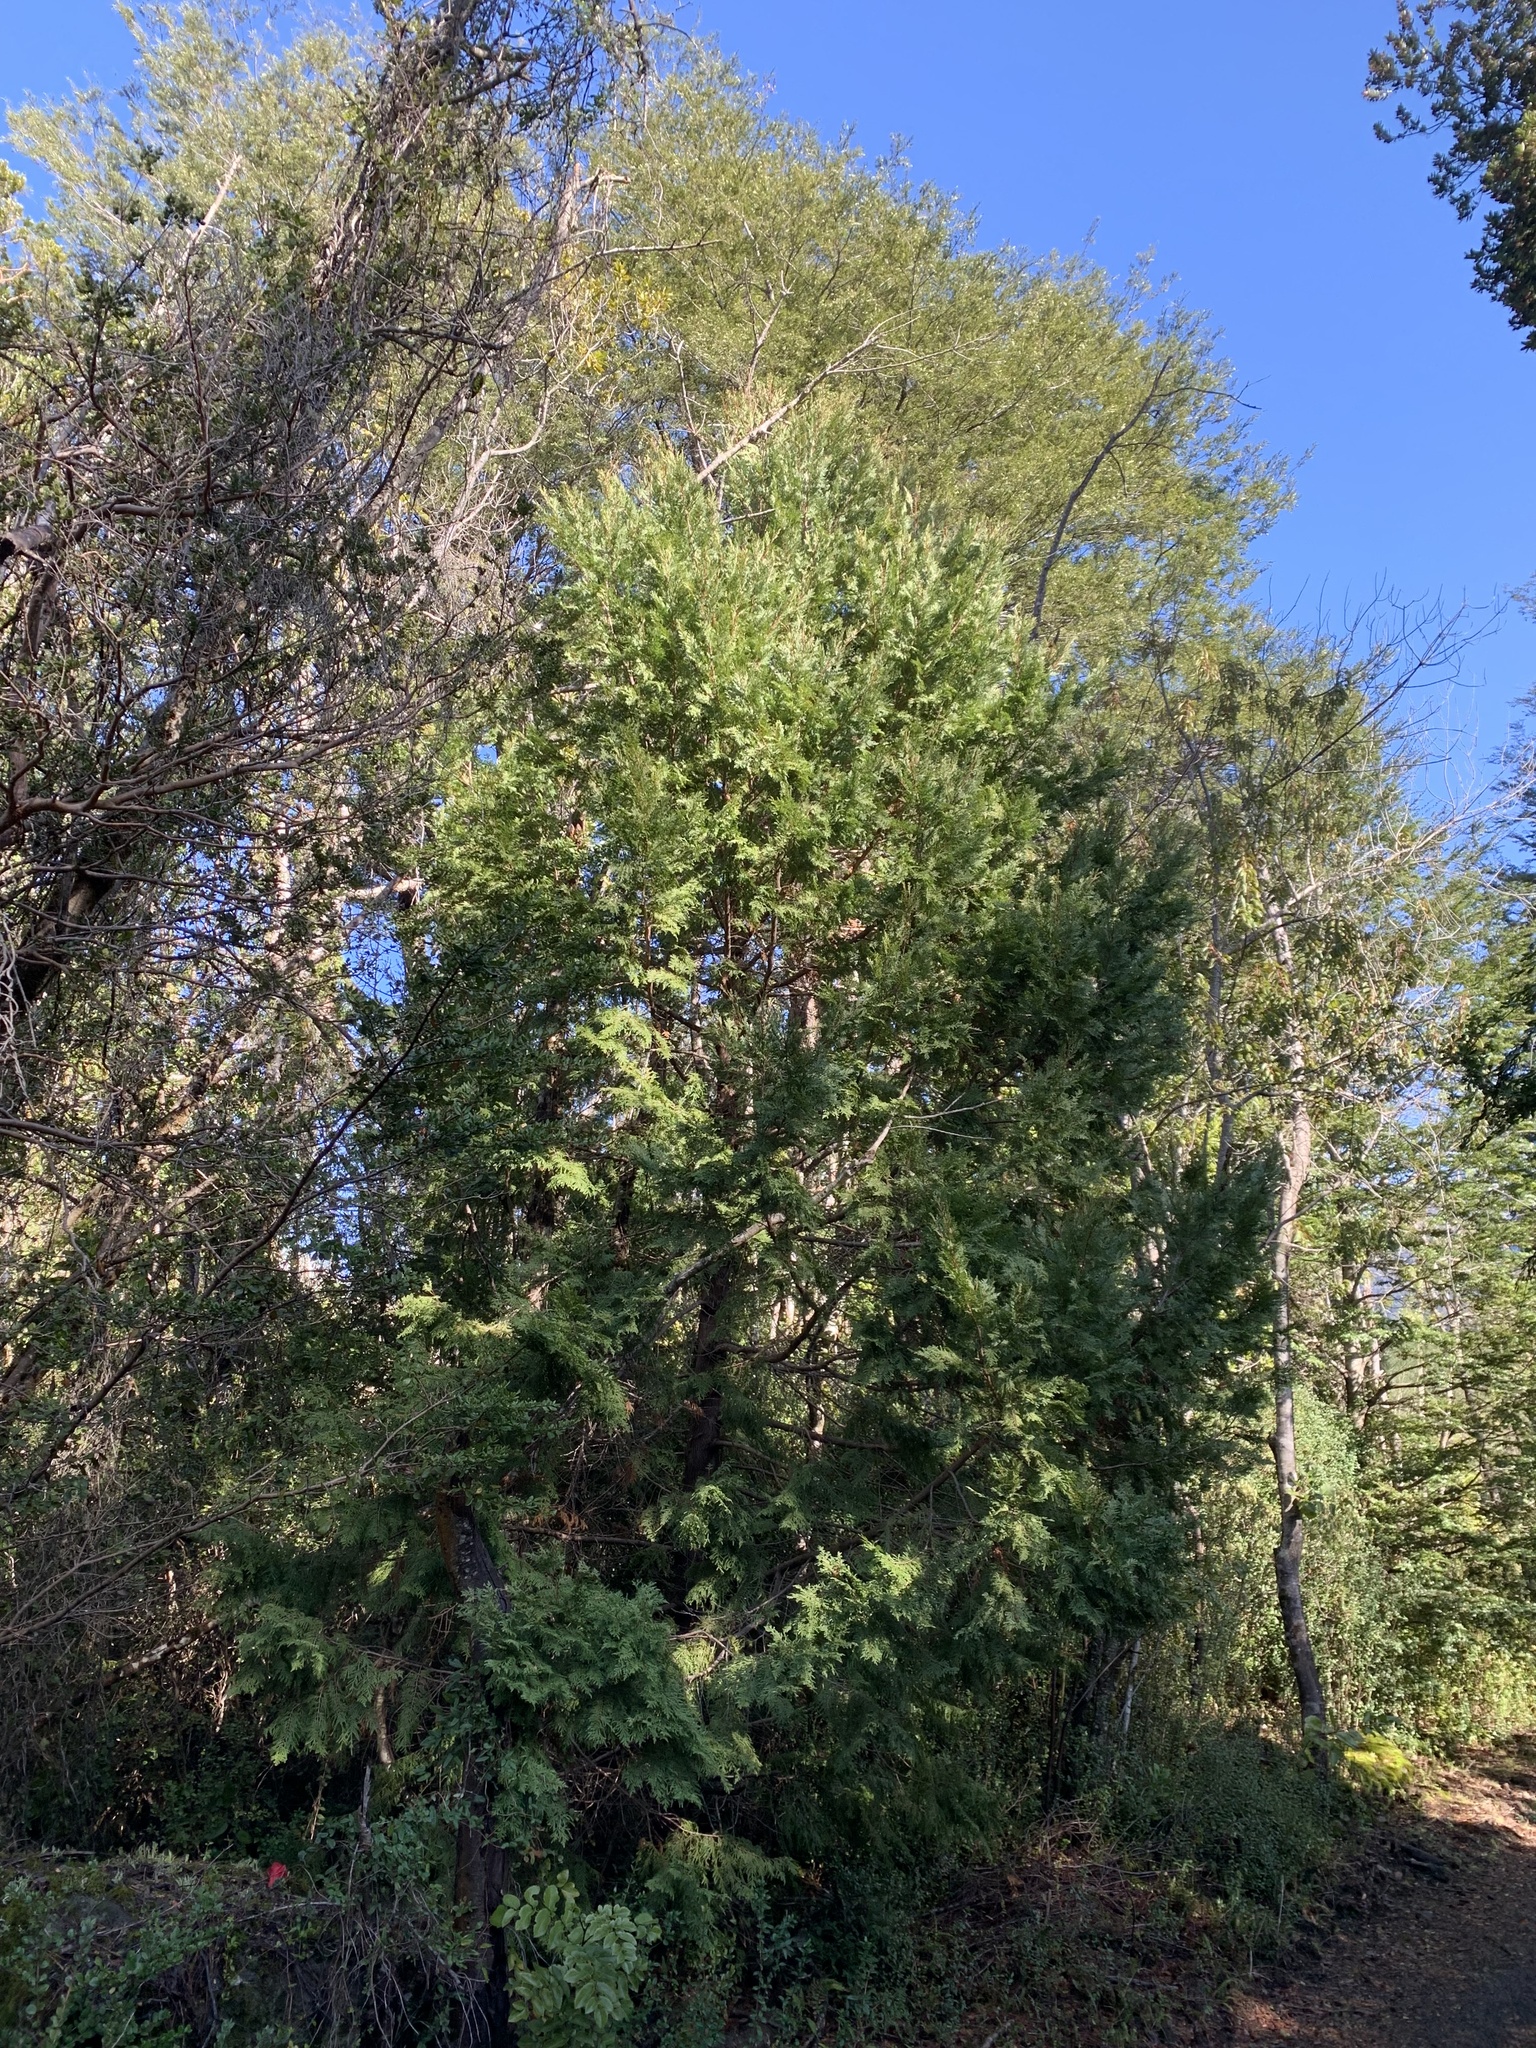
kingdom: Plantae
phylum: Tracheophyta
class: Pinopsida
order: Pinales
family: Cupressaceae
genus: Austrocedrus
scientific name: Austrocedrus chilensis
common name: Chilean incense-cedar
